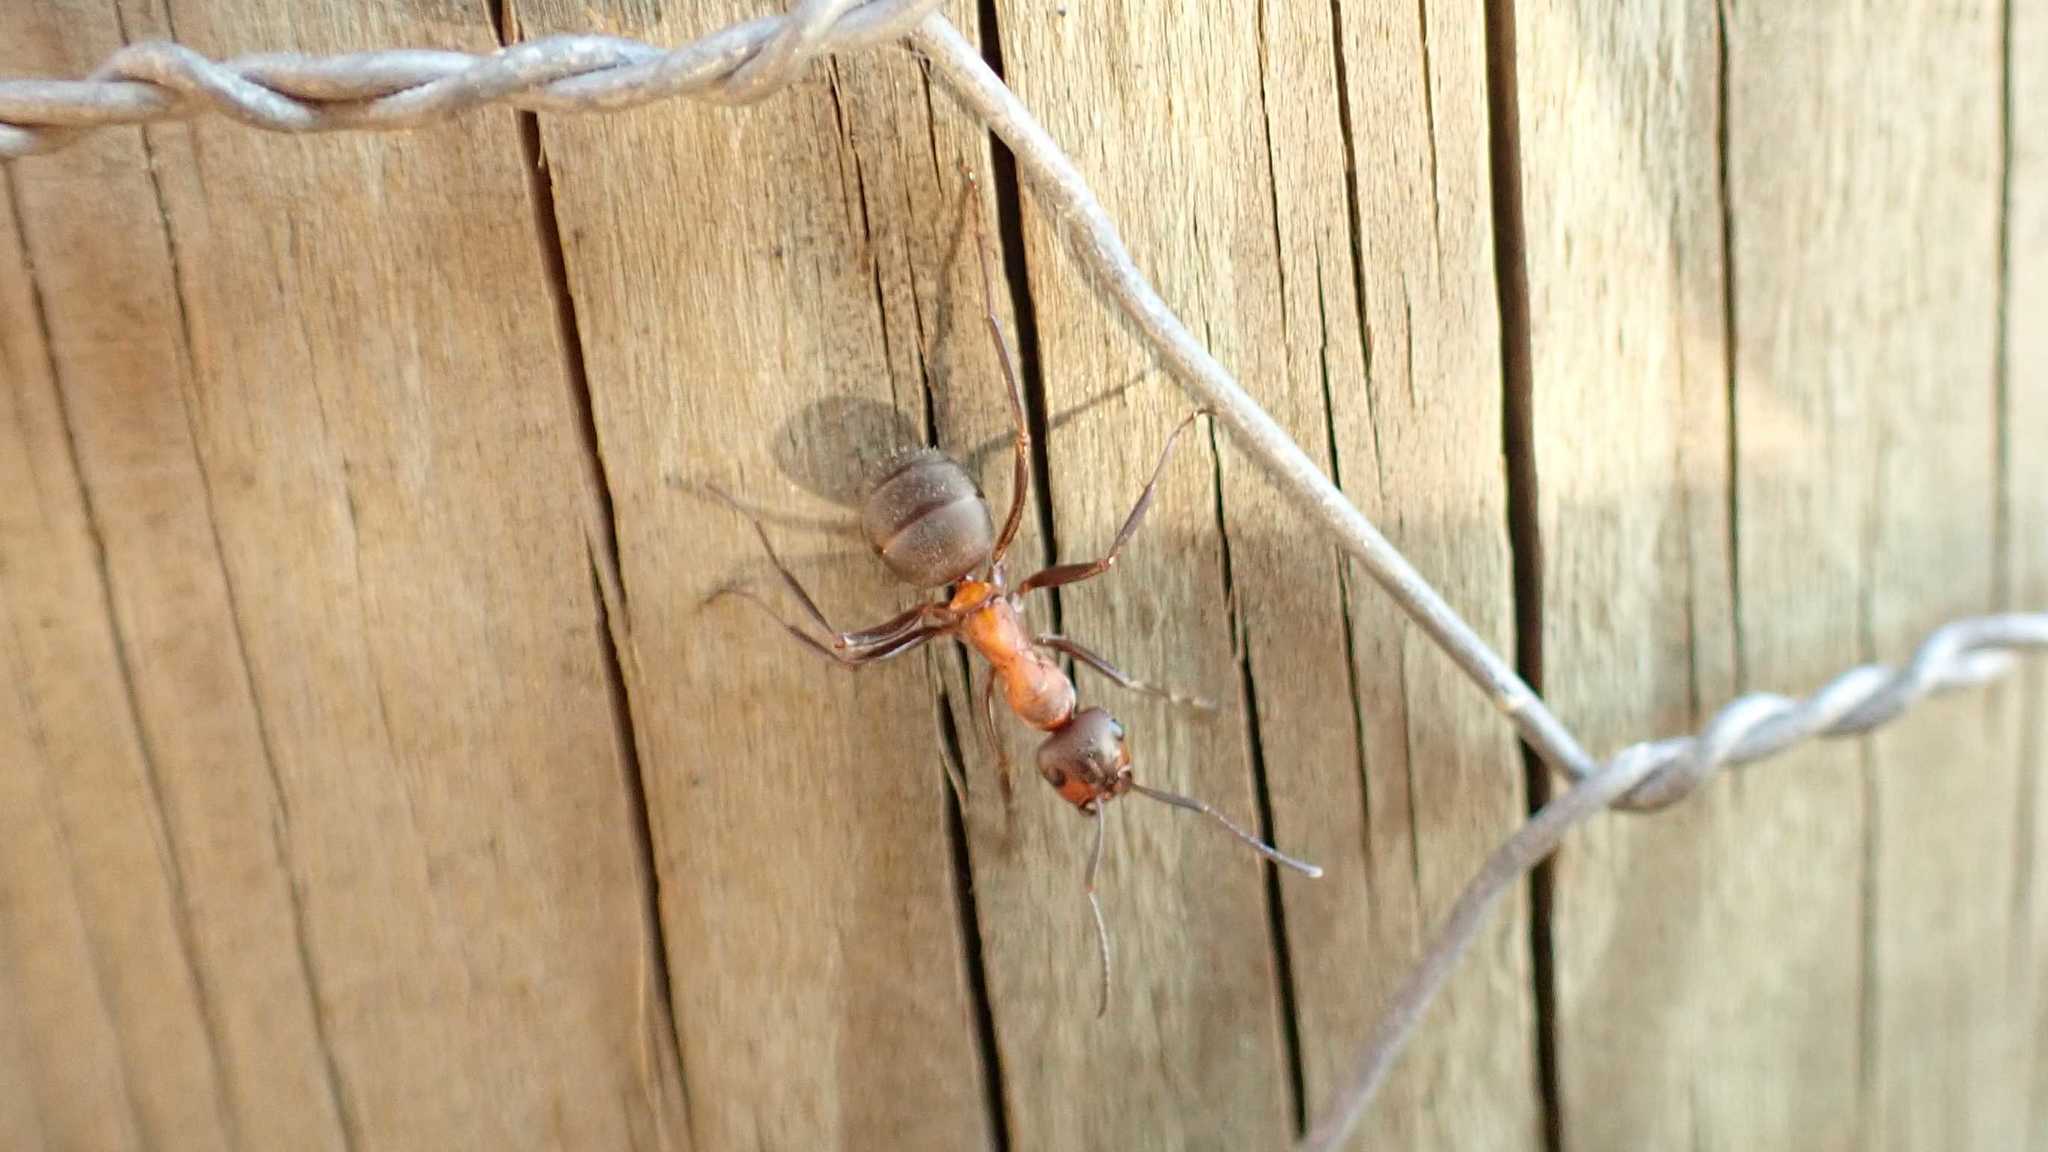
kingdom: Animalia
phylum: Arthropoda
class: Insecta
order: Hymenoptera
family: Formicidae
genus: Formica
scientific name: Formica
